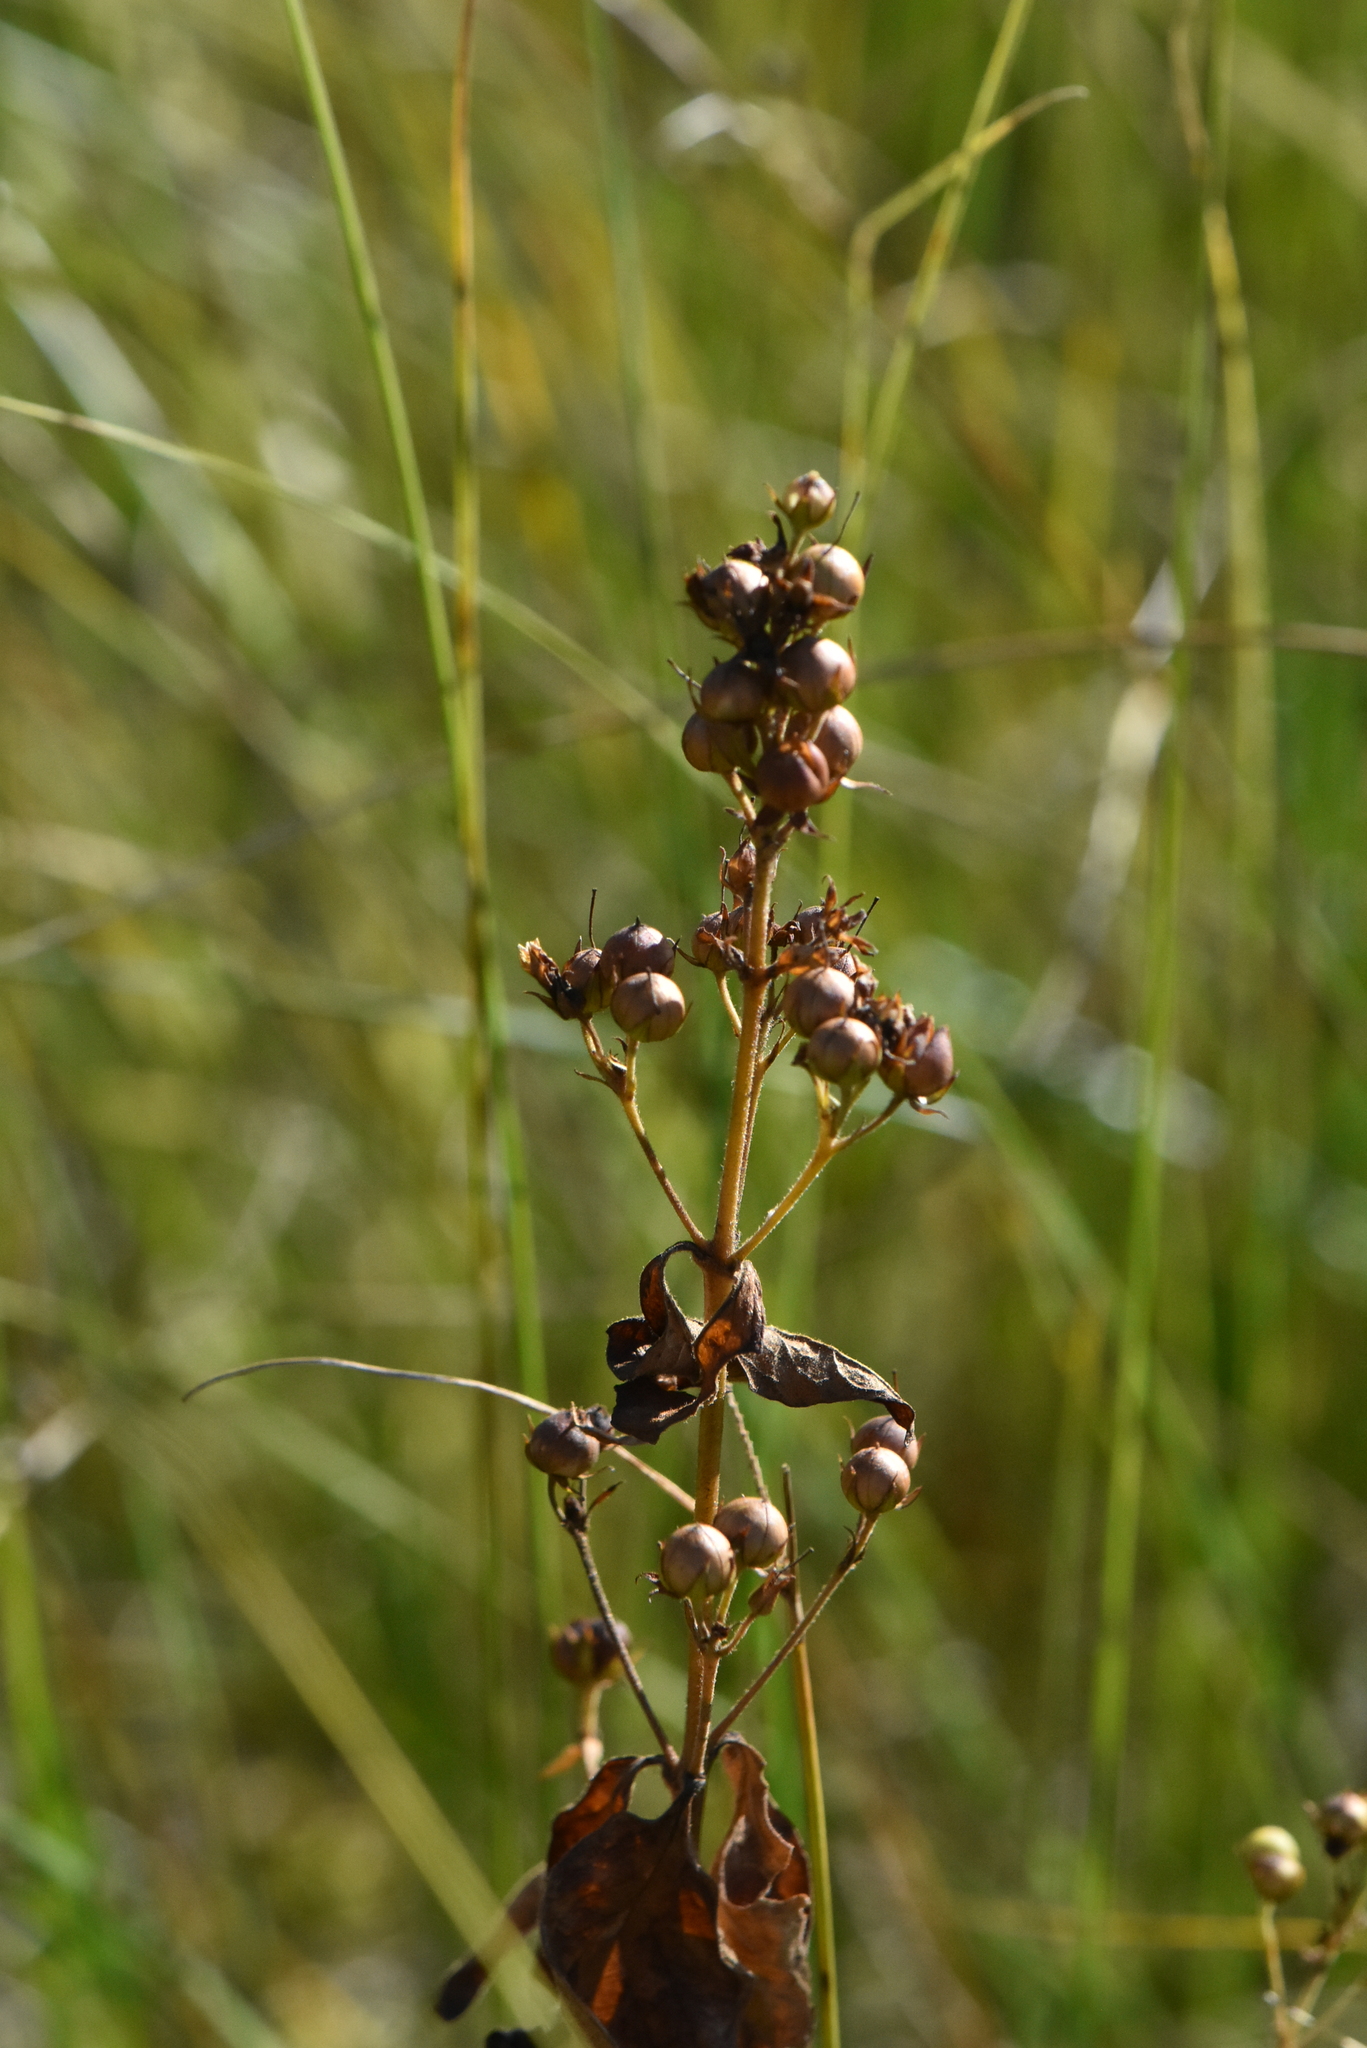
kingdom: Plantae
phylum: Tracheophyta
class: Magnoliopsida
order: Ericales
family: Primulaceae
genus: Lysimachia
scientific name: Lysimachia vulgaris
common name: Yellow loosestrife
